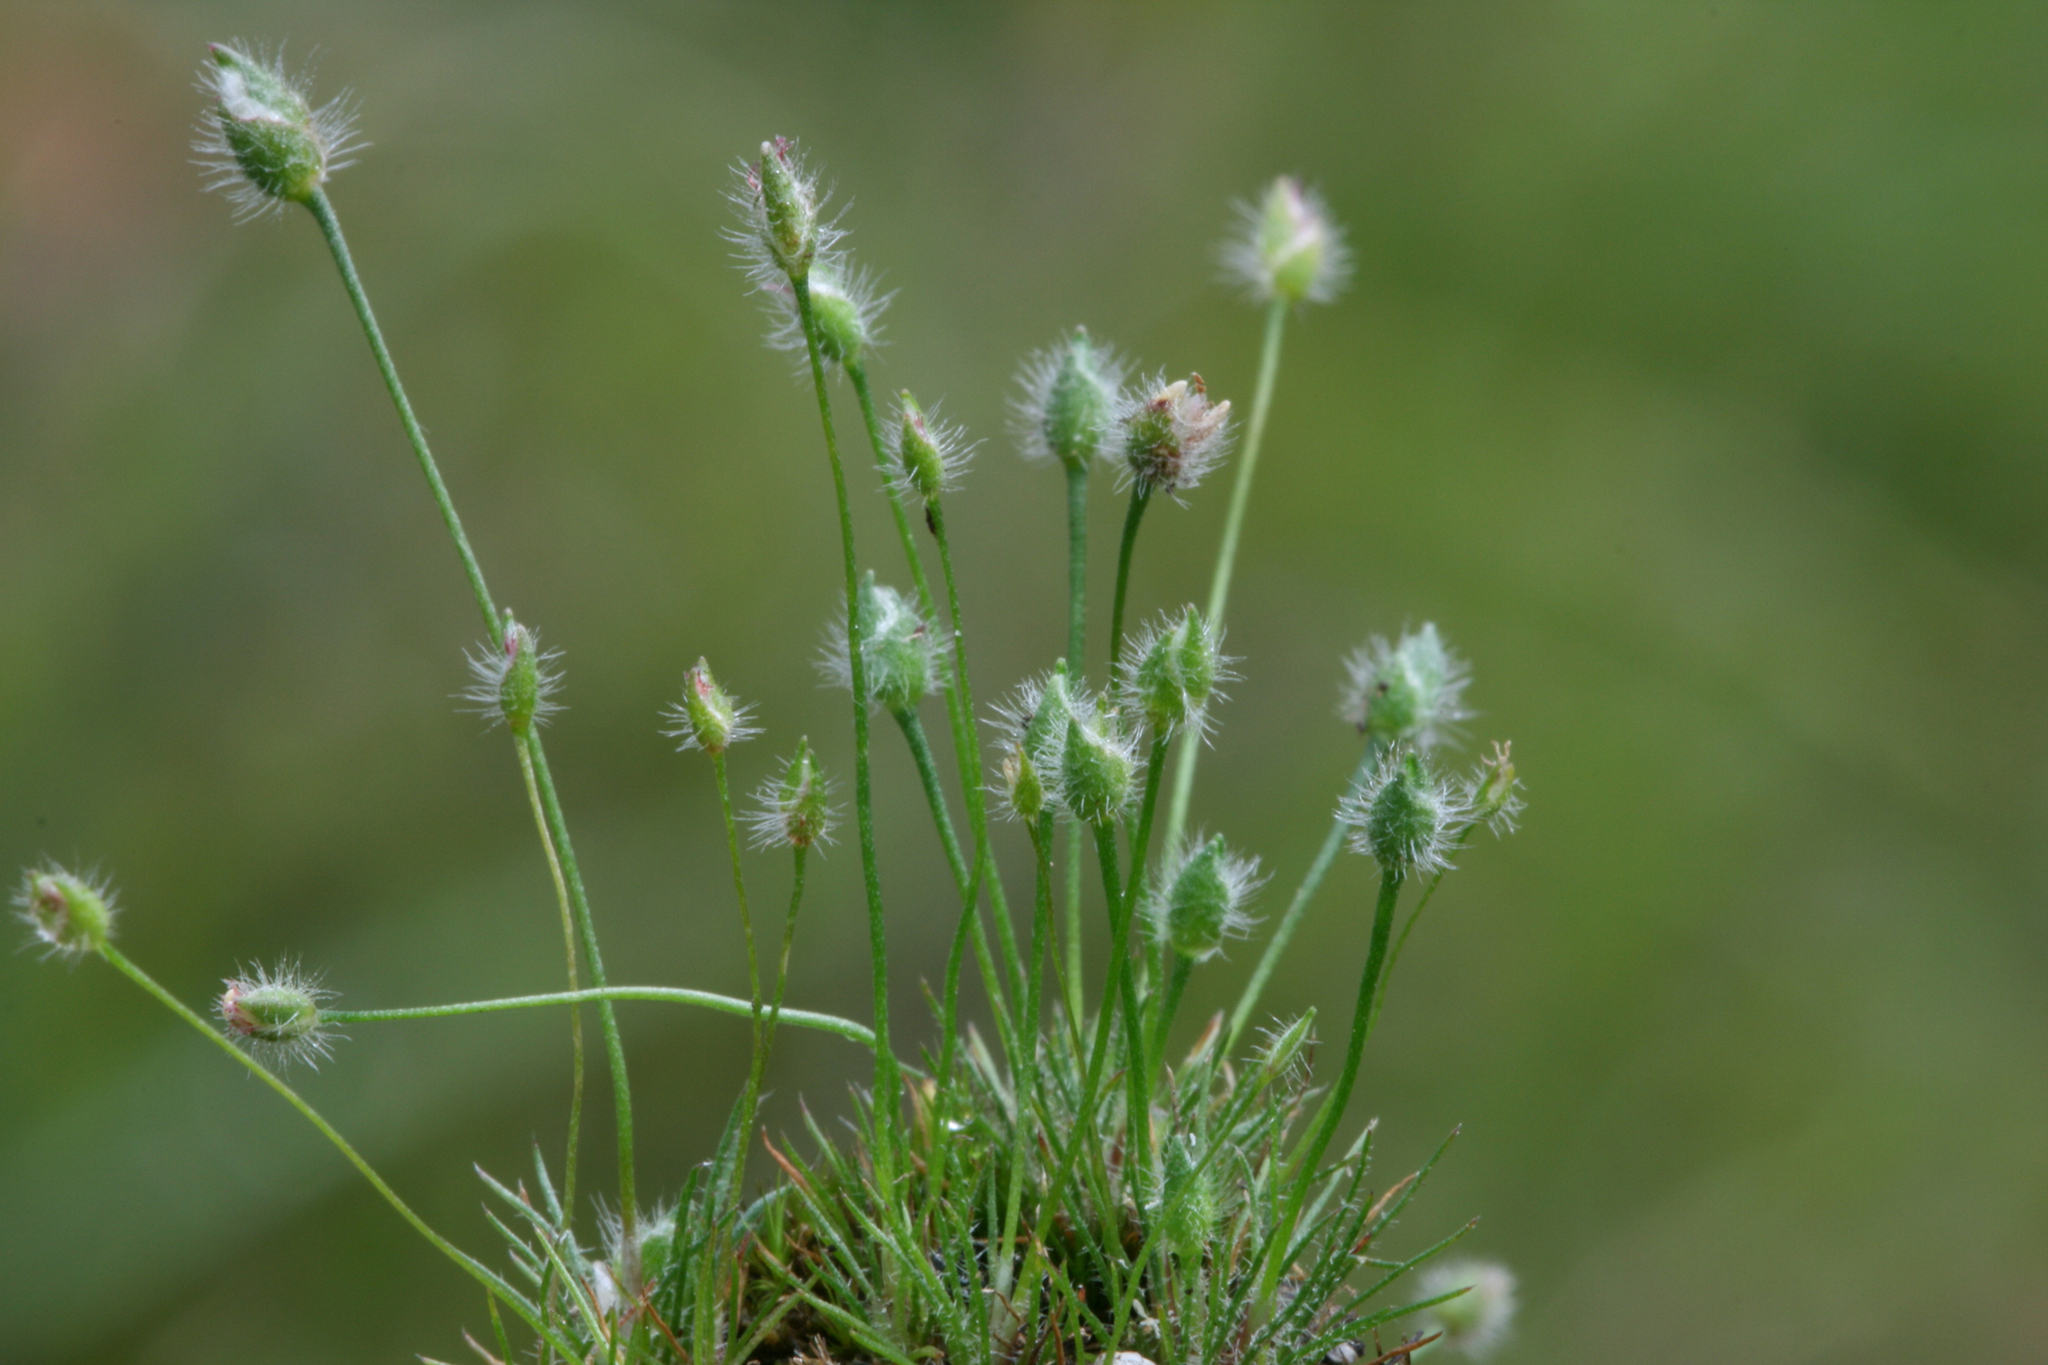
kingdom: Plantae
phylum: Tracheophyta
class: Liliopsida
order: Poales
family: Restionaceae
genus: Centrolepis
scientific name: Centrolepis strigosa
